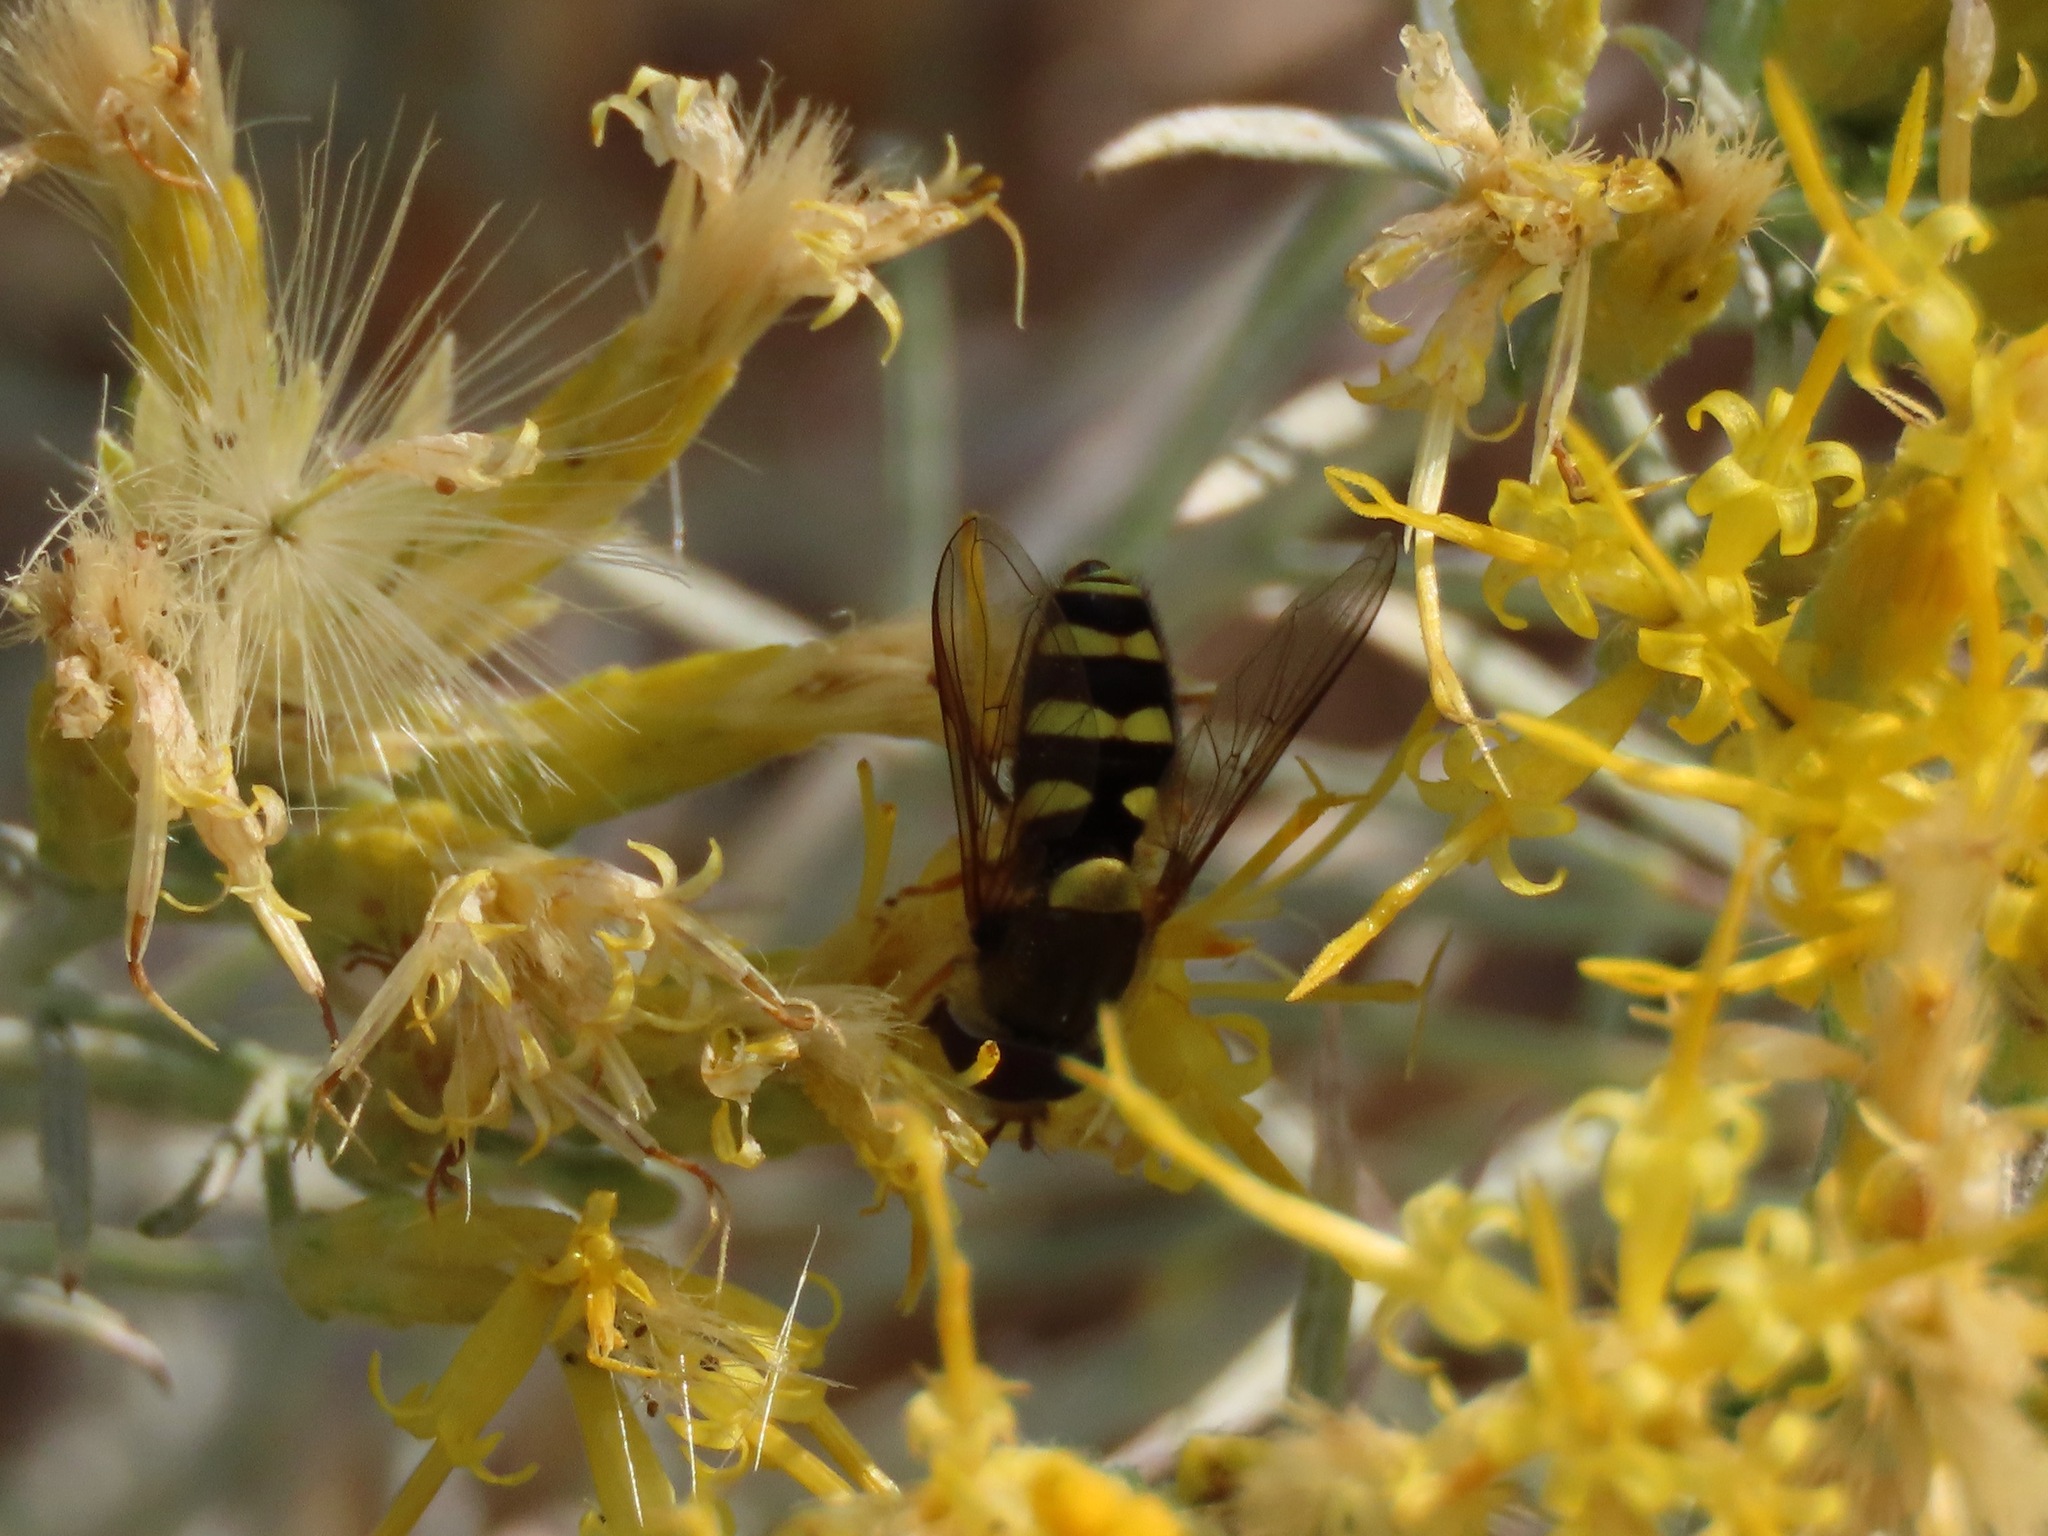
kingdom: Animalia
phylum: Arthropoda
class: Insecta
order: Diptera
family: Syrphidae
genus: Syrphus
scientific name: Syrphus opinator
